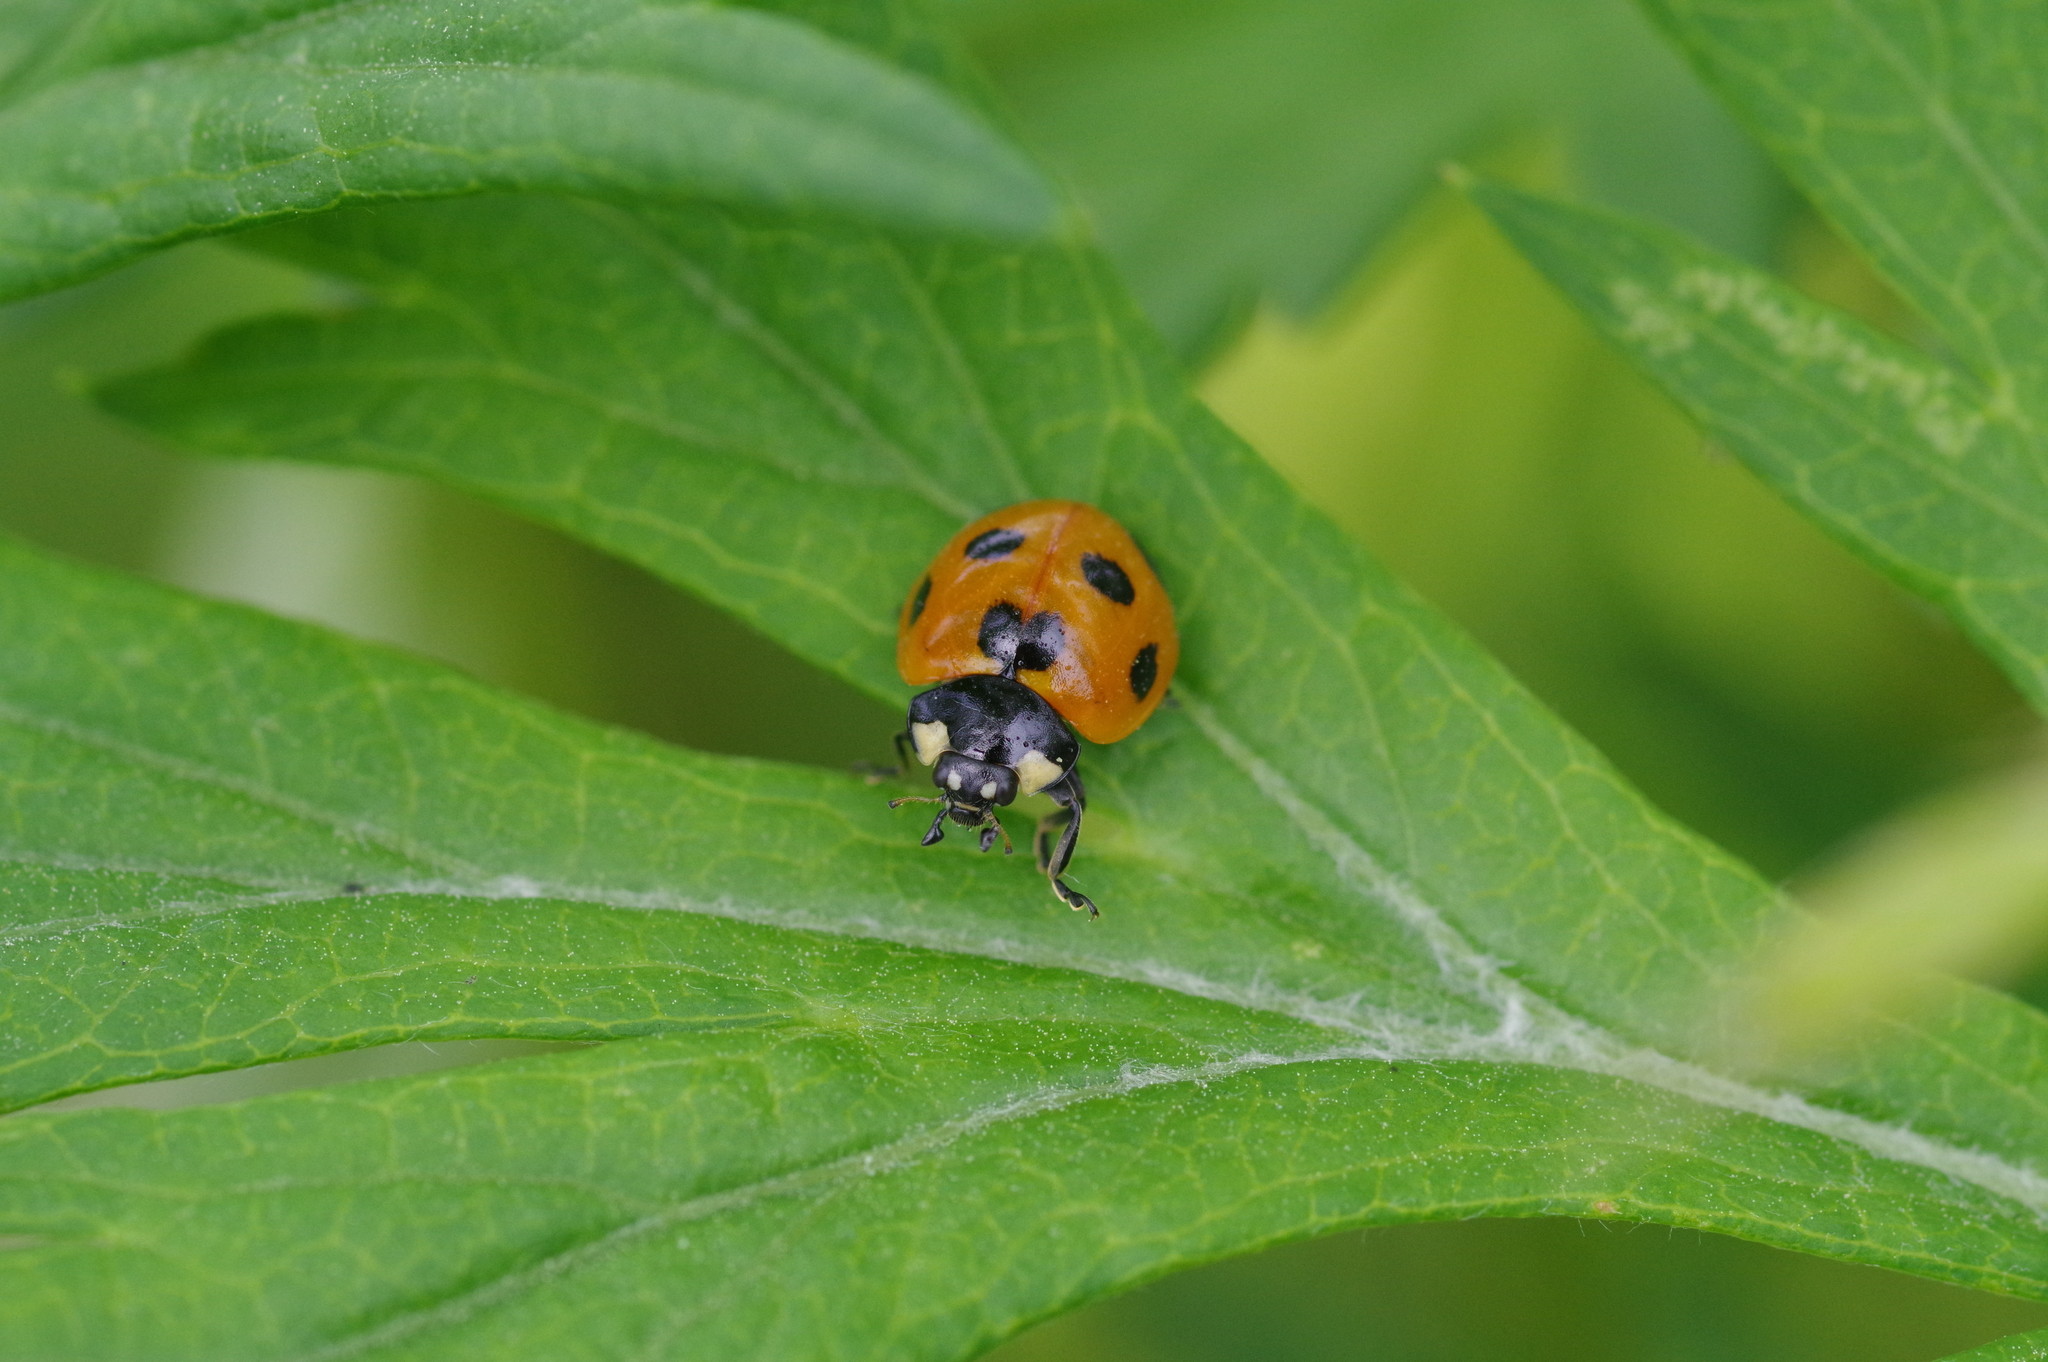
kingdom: Animalia
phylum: Arthropoda
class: Insecta
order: Coleoptera
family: Coccinellidae
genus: Coccinella
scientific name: Coccinella septempunctata
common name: Sevenspotted lady beetle
